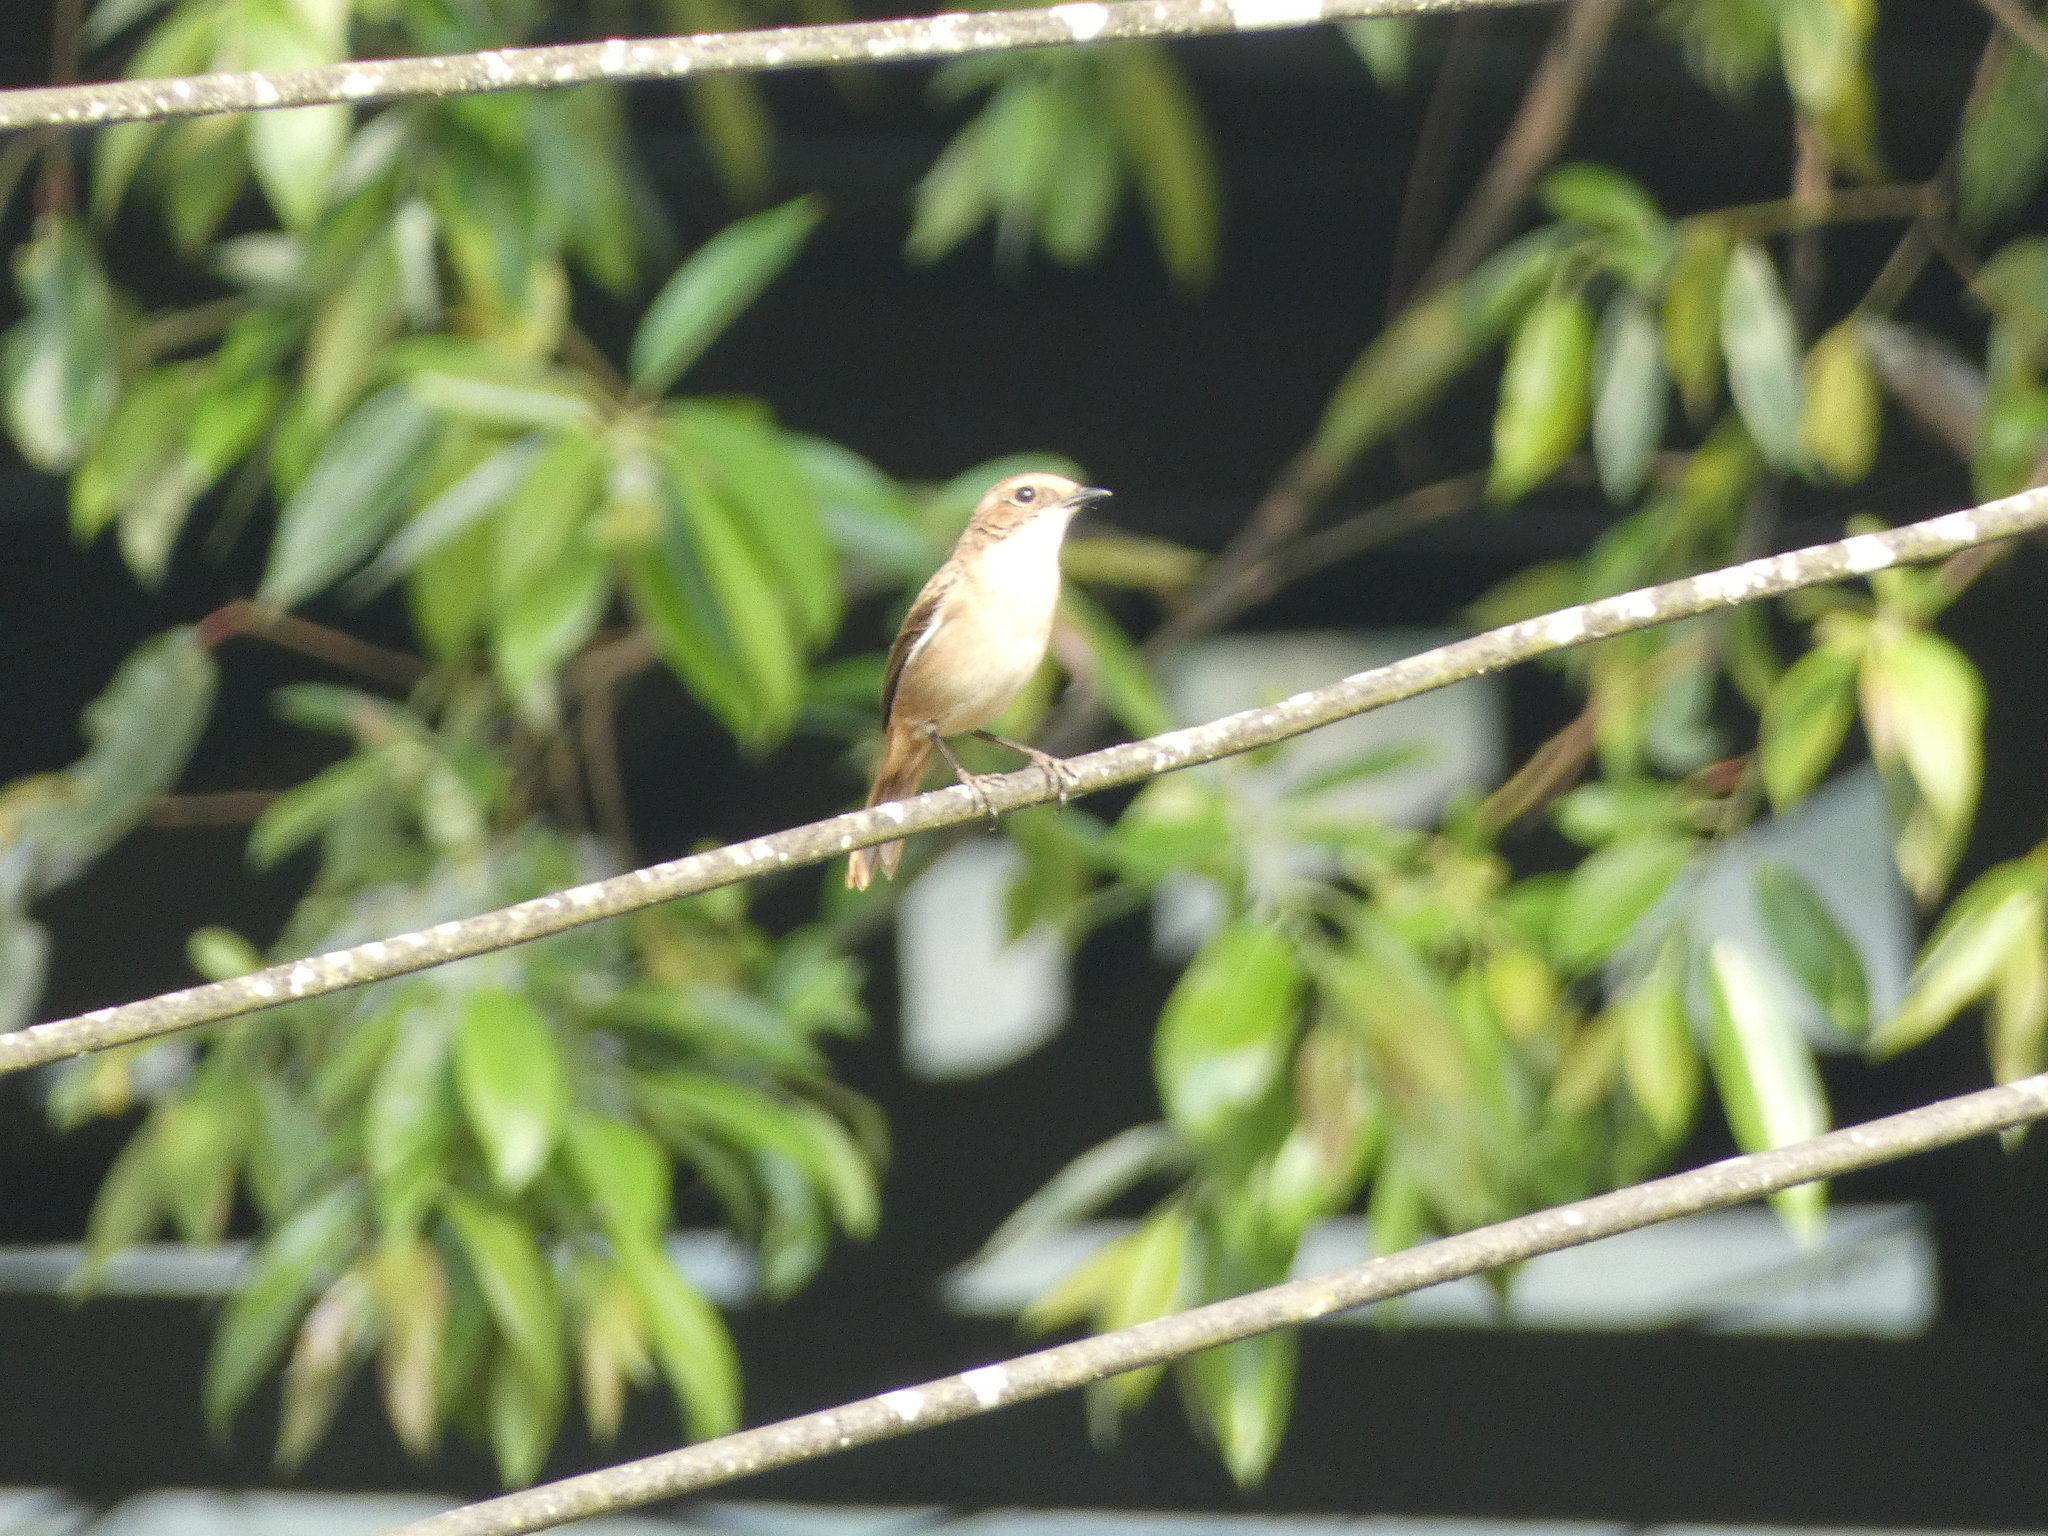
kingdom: Animalia
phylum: Chordata
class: Aves
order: Passeriformes
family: Muscicapidae
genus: Saxicola
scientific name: Saxicola ferreus
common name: Grey bush chat
